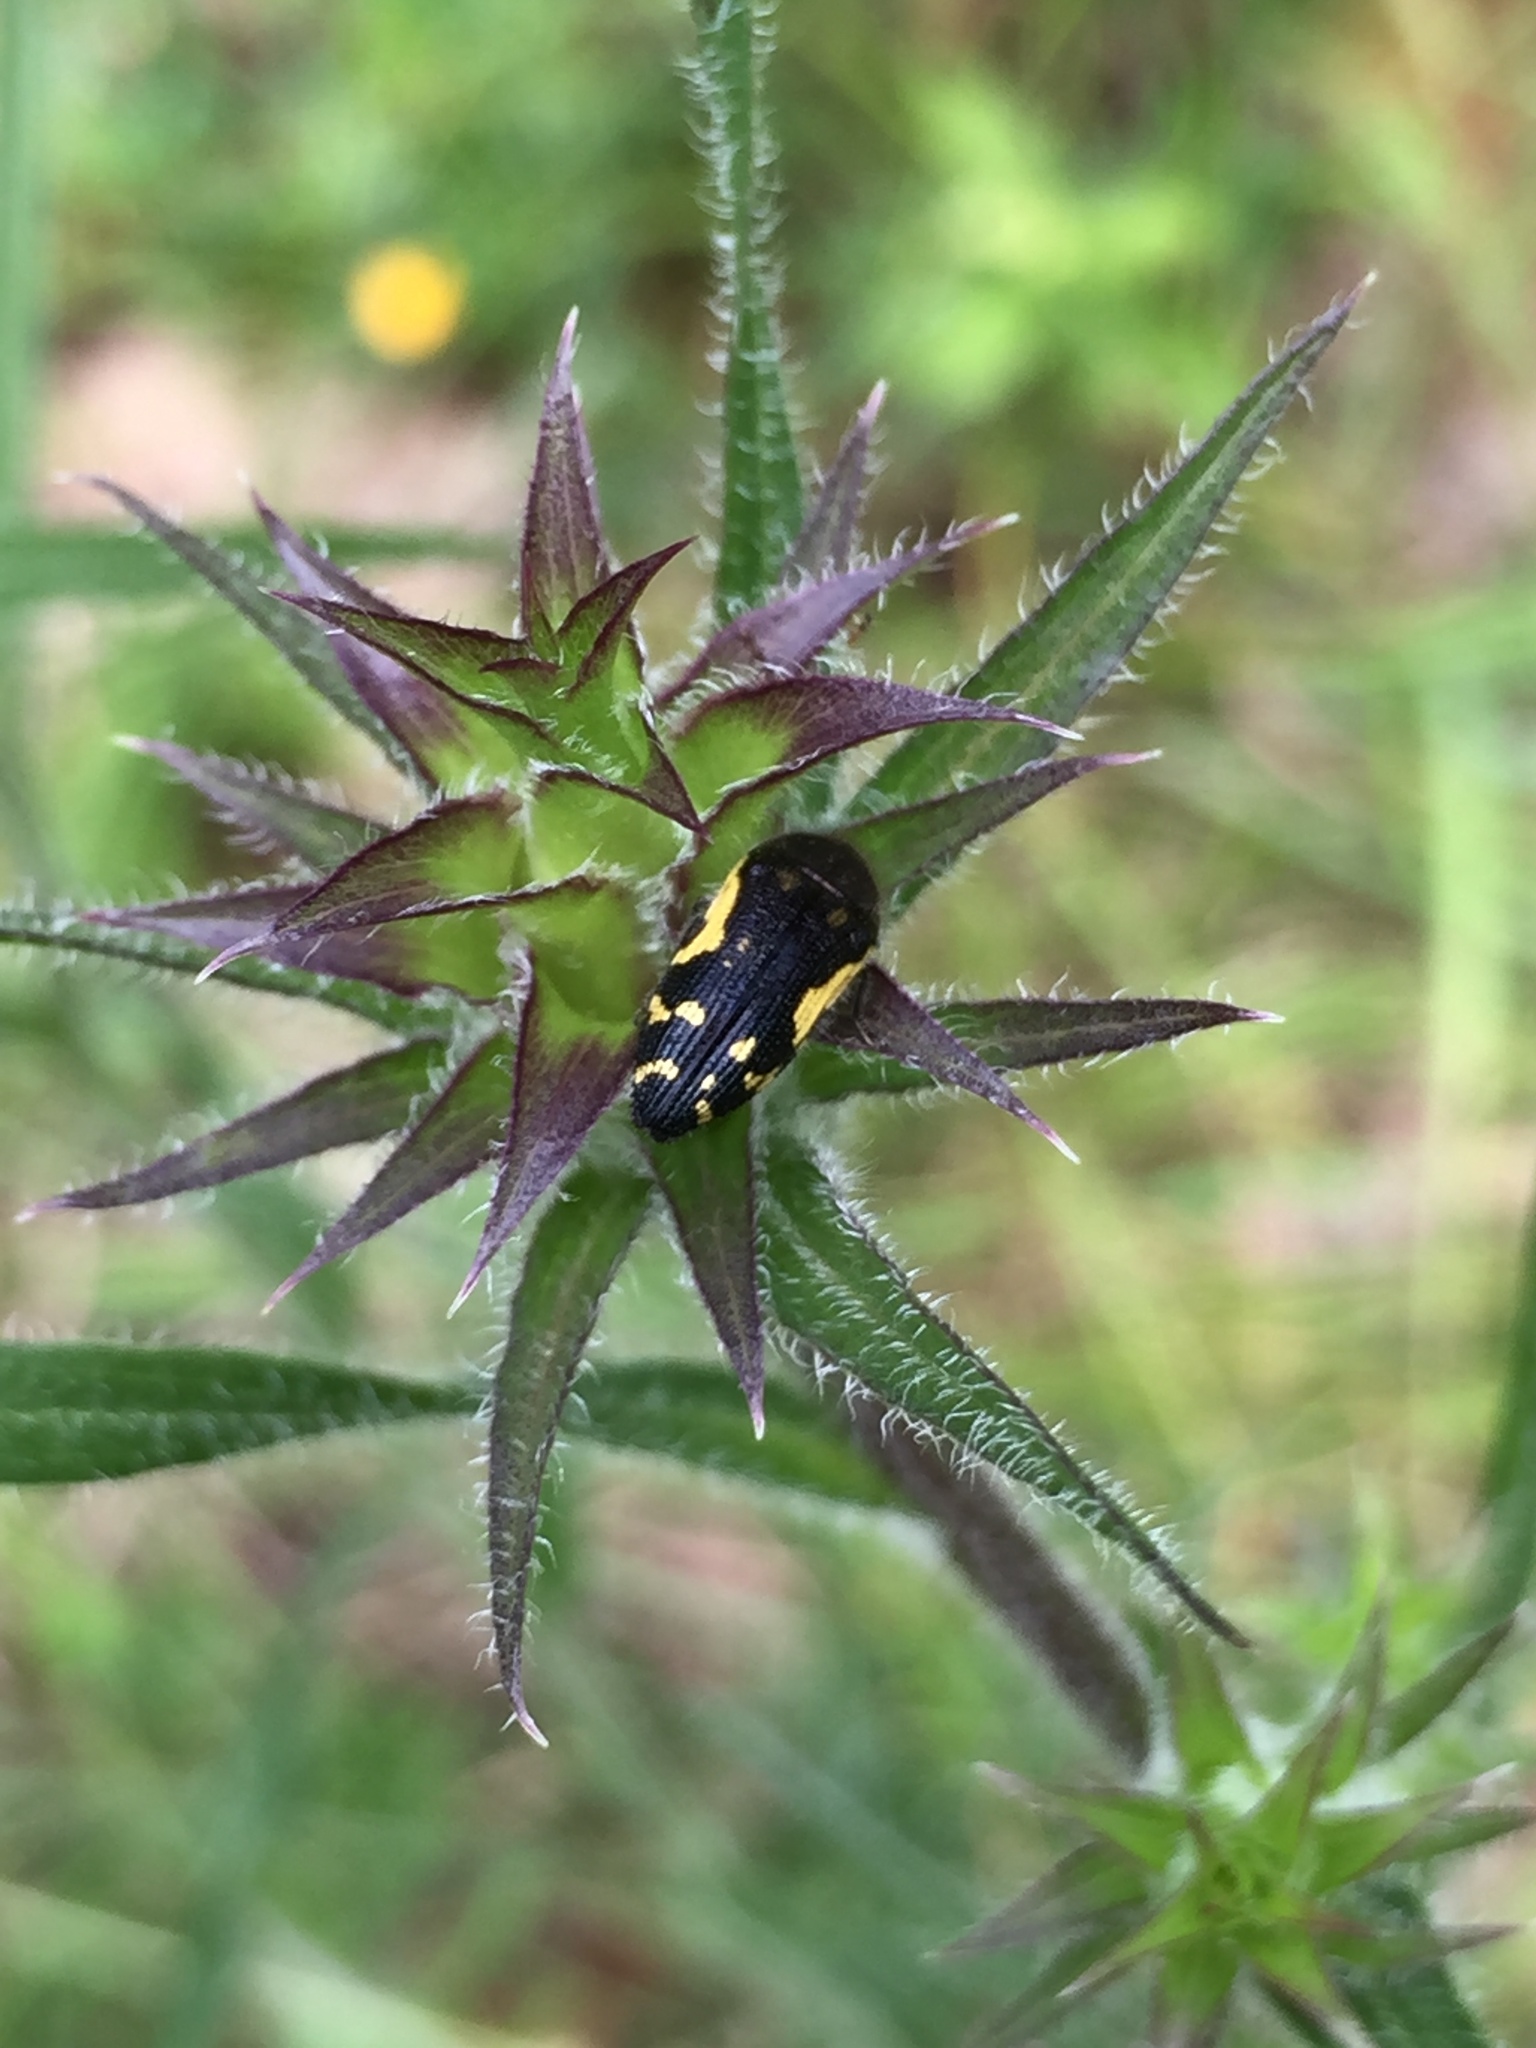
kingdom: Animalia
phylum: Arthropoda
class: Insecta
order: Coleoptera
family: Buprestidae
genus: Acmaeodera
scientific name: Acmaeodera pulchella
